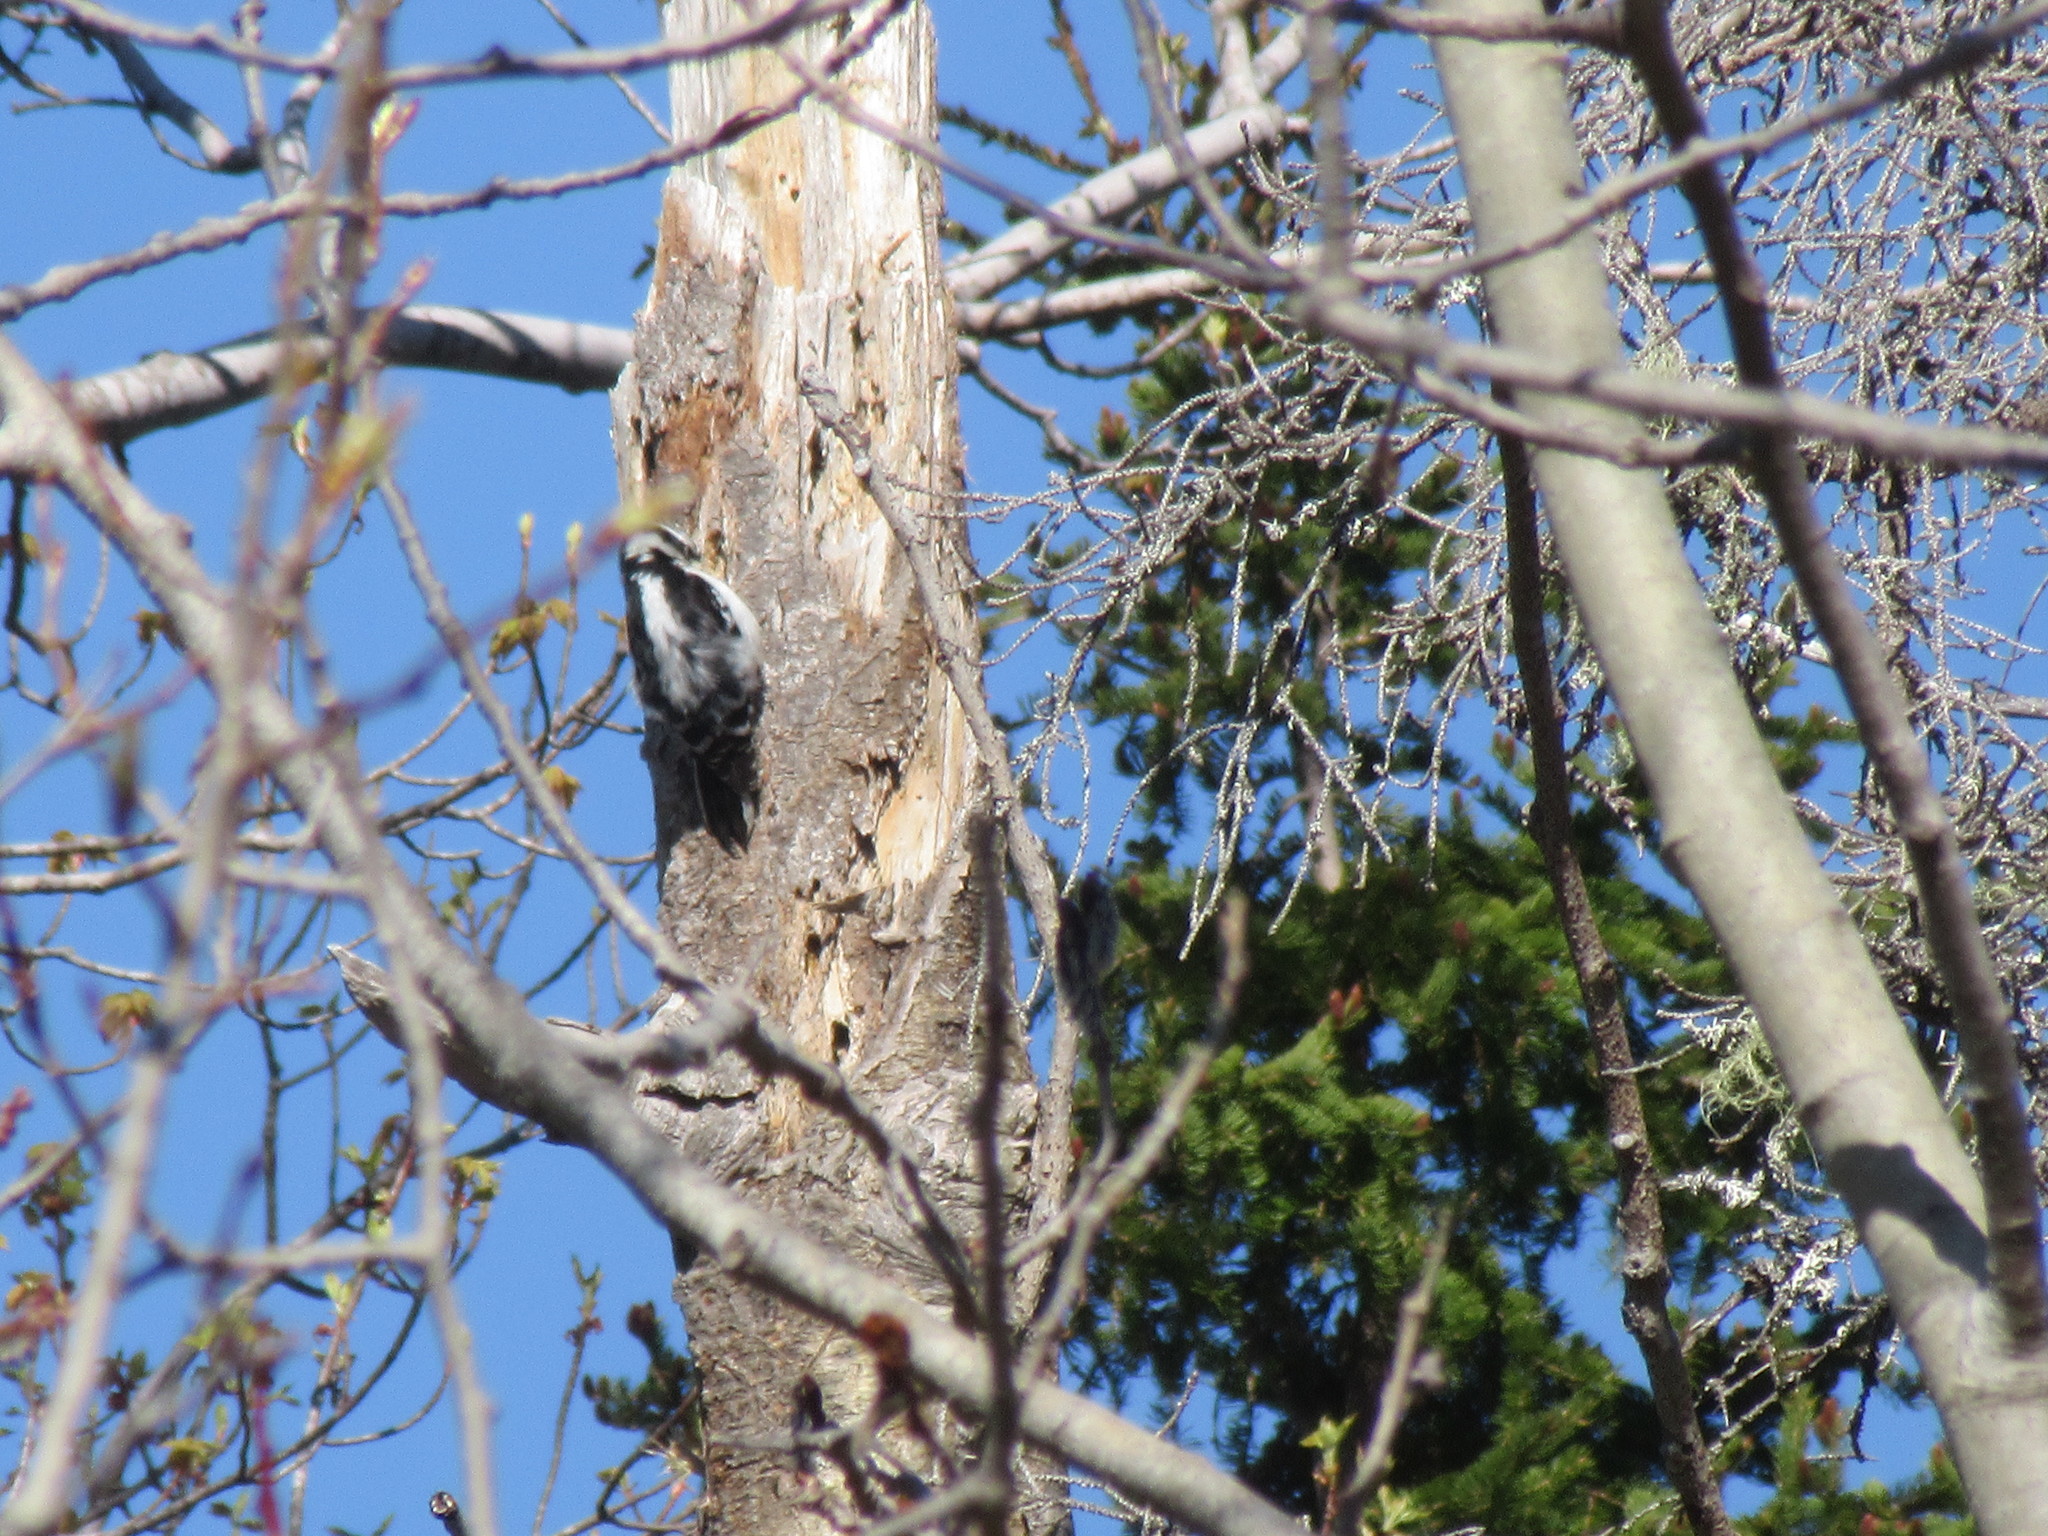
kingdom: Animalia
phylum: Chordata
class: Aves
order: Piciformes
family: Picidae
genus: Dryobates
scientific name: Dryobates pubescens
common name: Downy woodpecker
